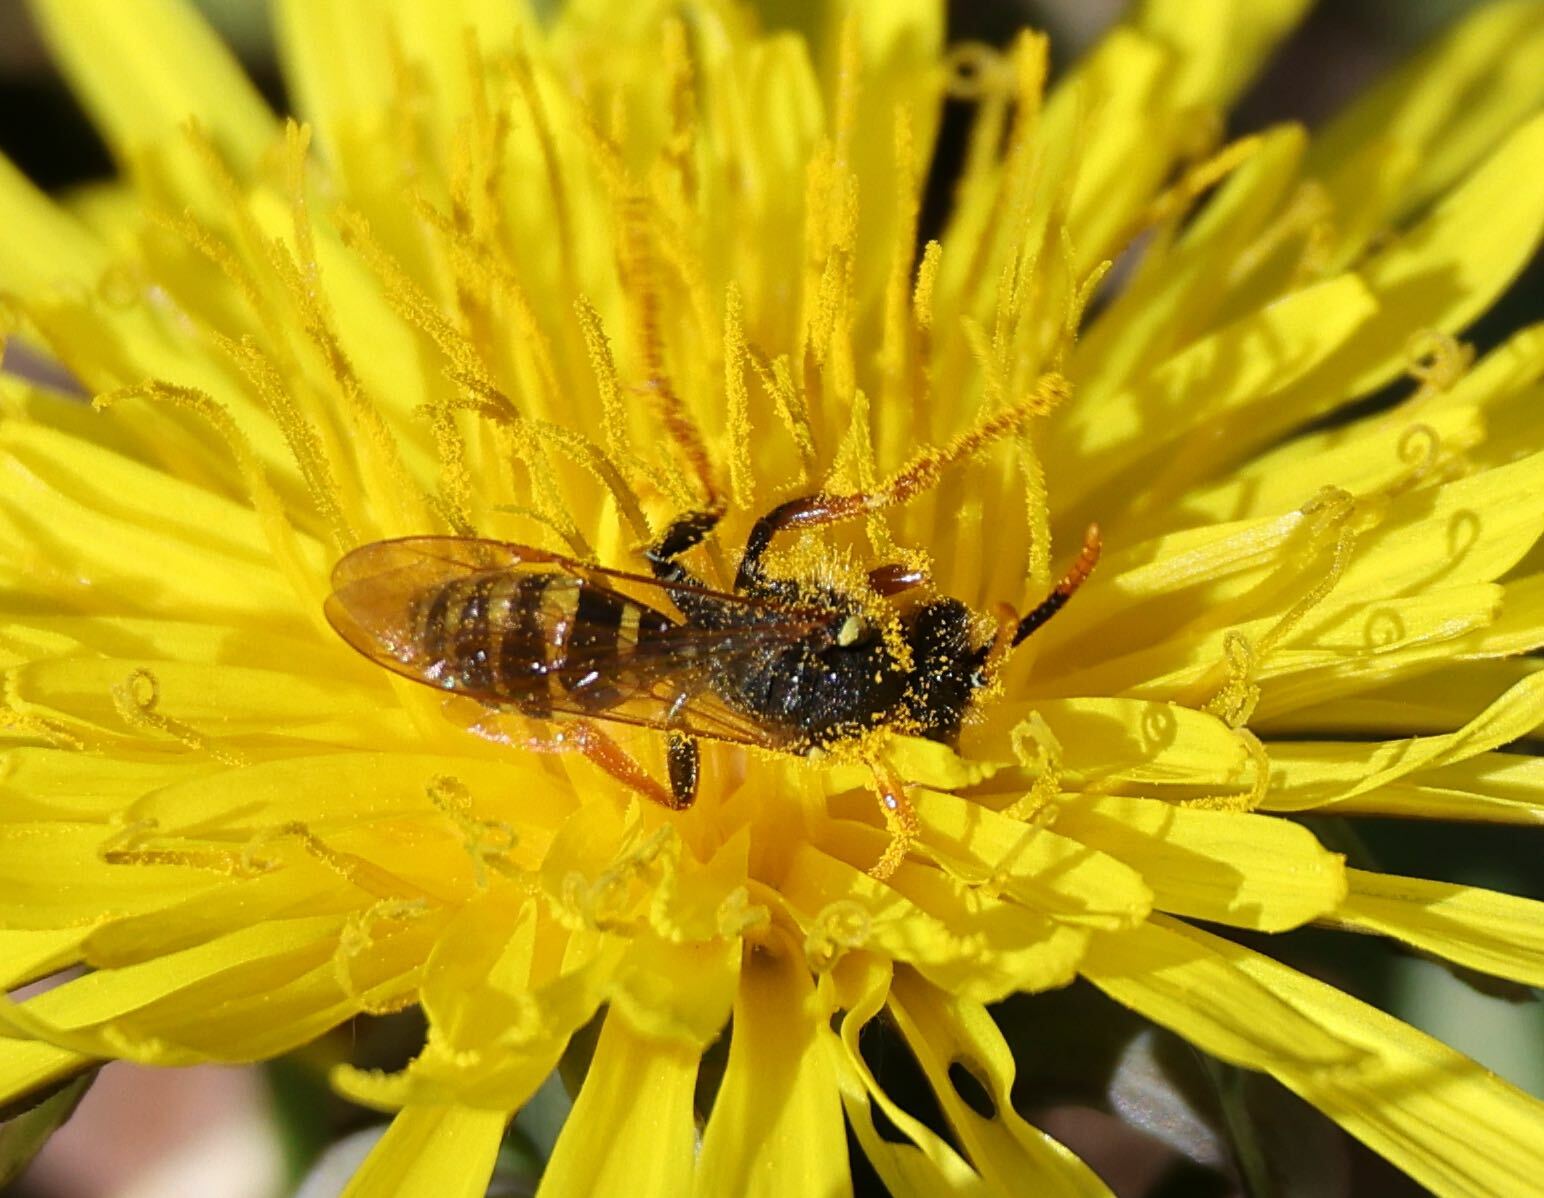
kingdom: Animalia
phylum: Arthropoda
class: Insecta
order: Hymenoptera
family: Apidae
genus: Nomada
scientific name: Nomada goodeniana
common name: Gooden's nomad bee
